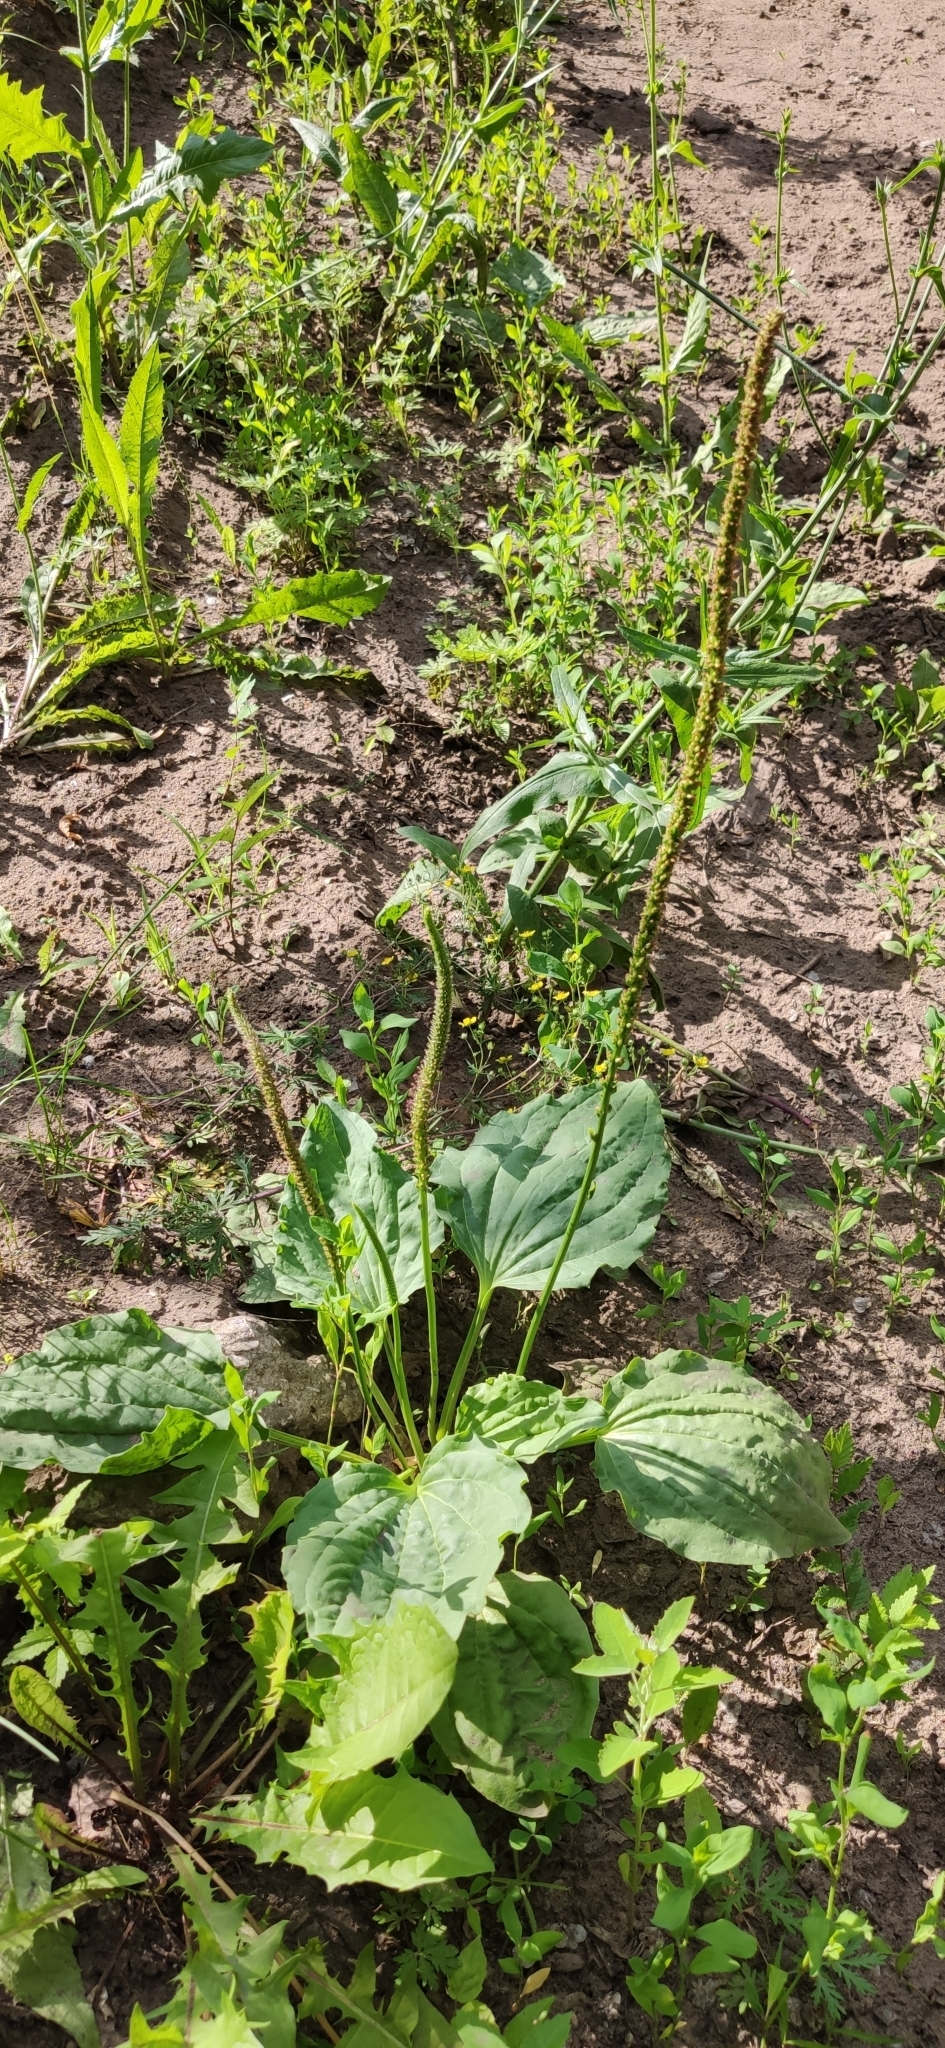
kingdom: Plantae
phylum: Tracheophyta
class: Magnoliopsida
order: Lamiales
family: Plantaginaceae
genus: Plantago
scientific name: Plantago major
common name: Common plantain
